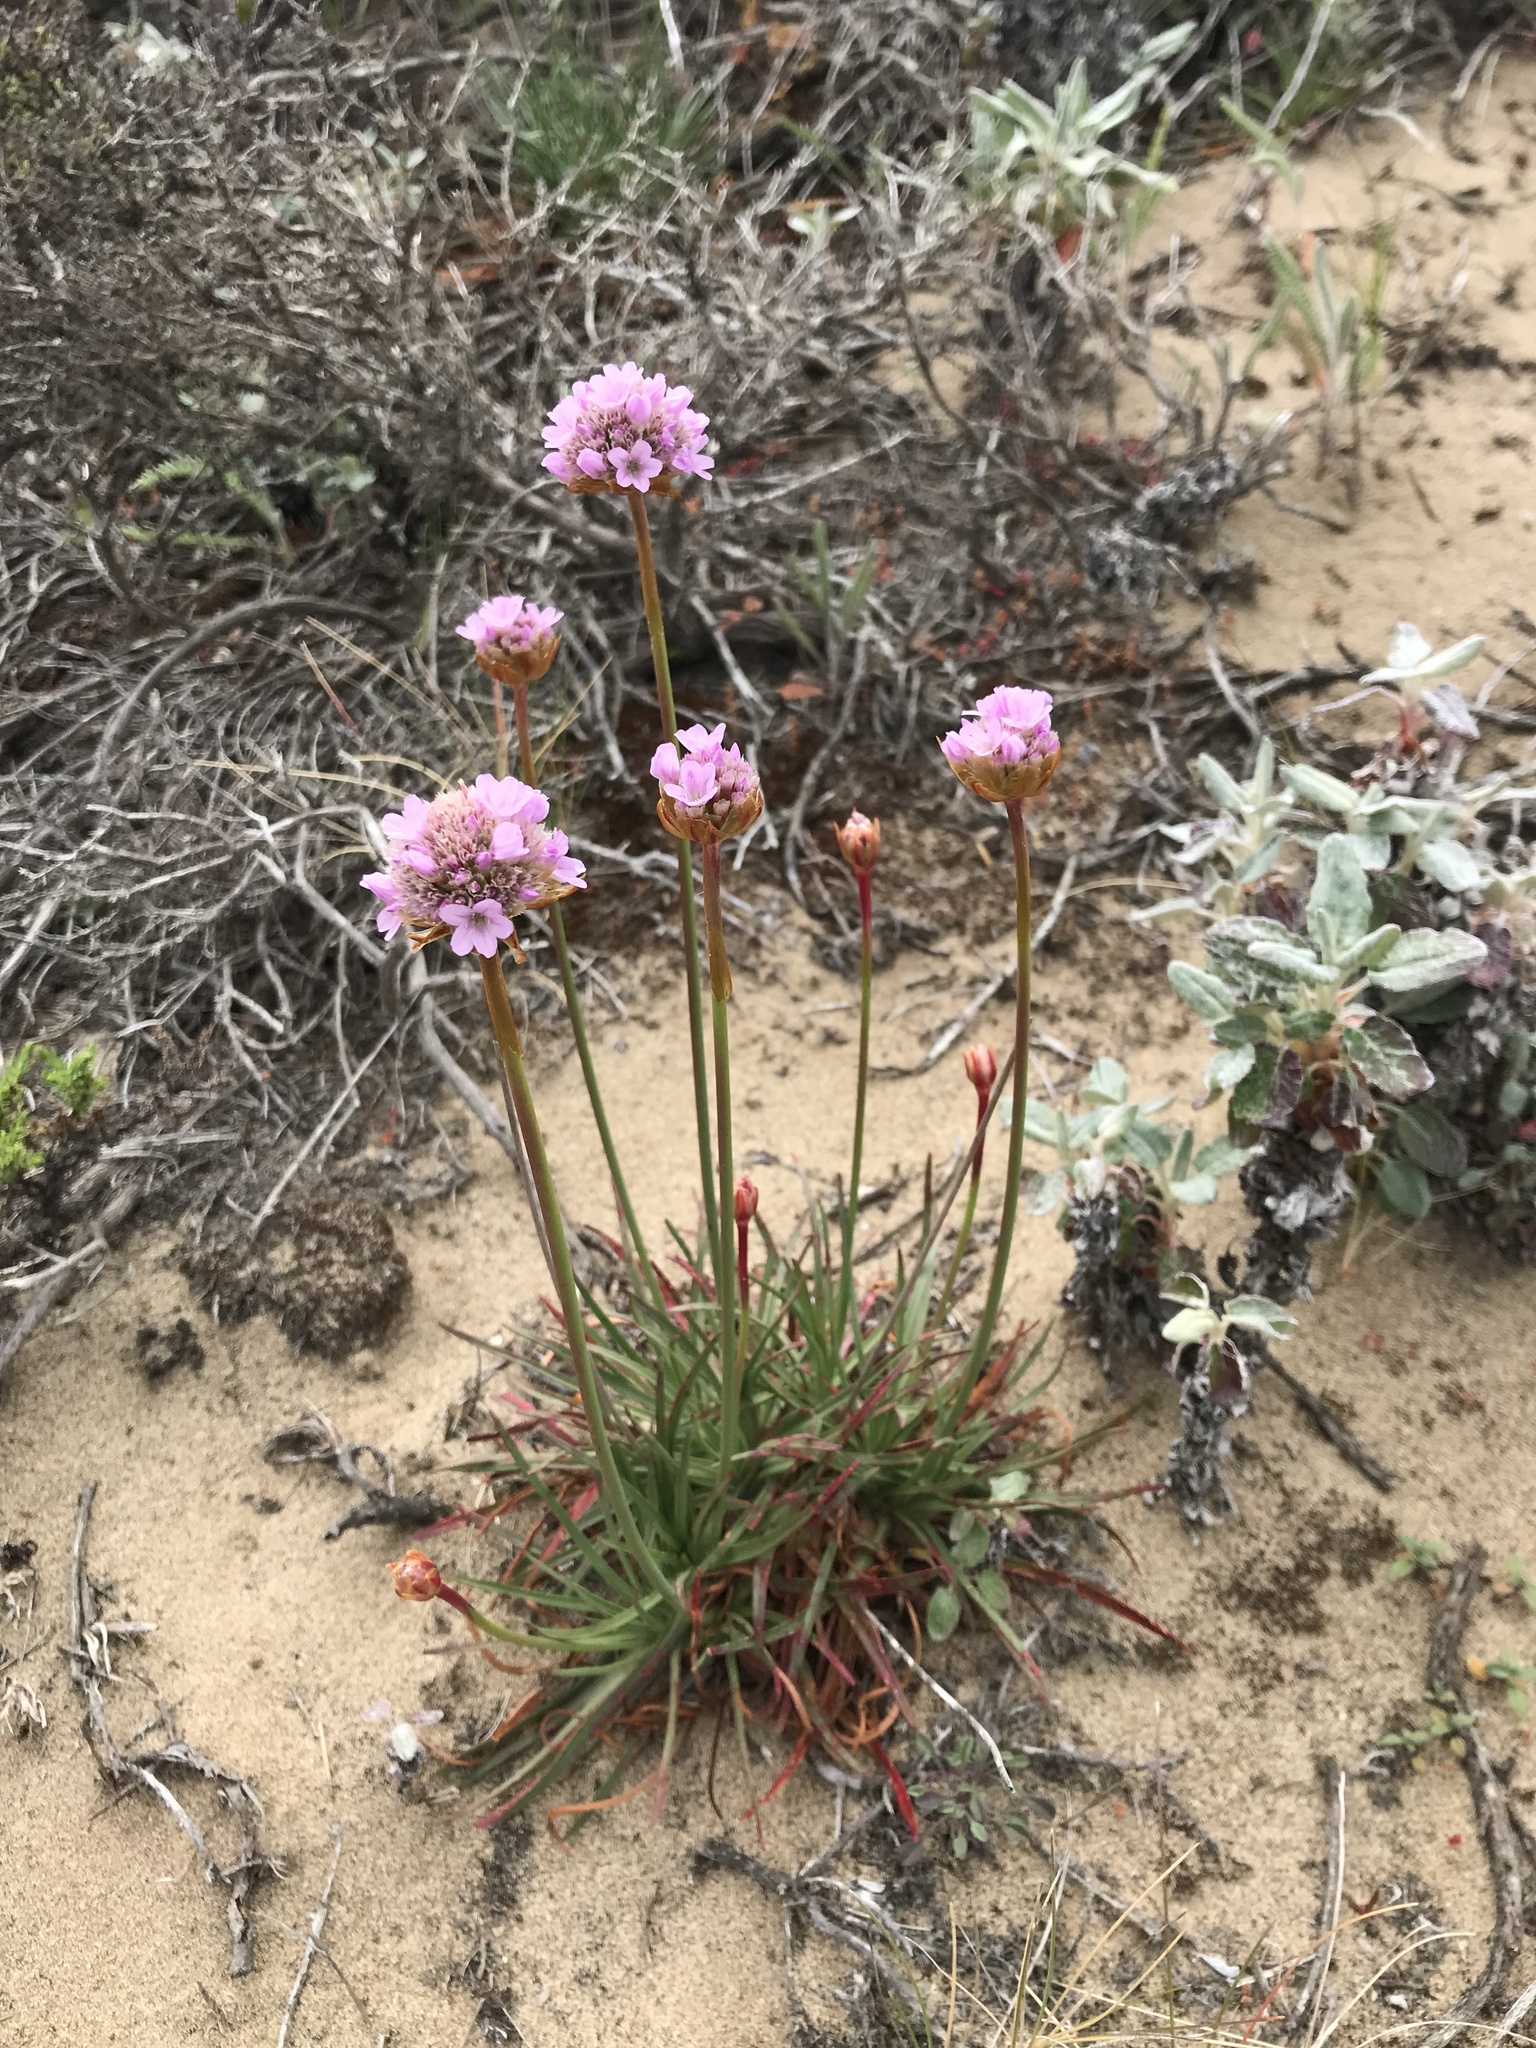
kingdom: Plantae
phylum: Tracheophyta
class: Magnoliopsida
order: Caryophyllales
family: Plumbaginaceae
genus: Armeria
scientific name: Armeria maritima
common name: Thrift
